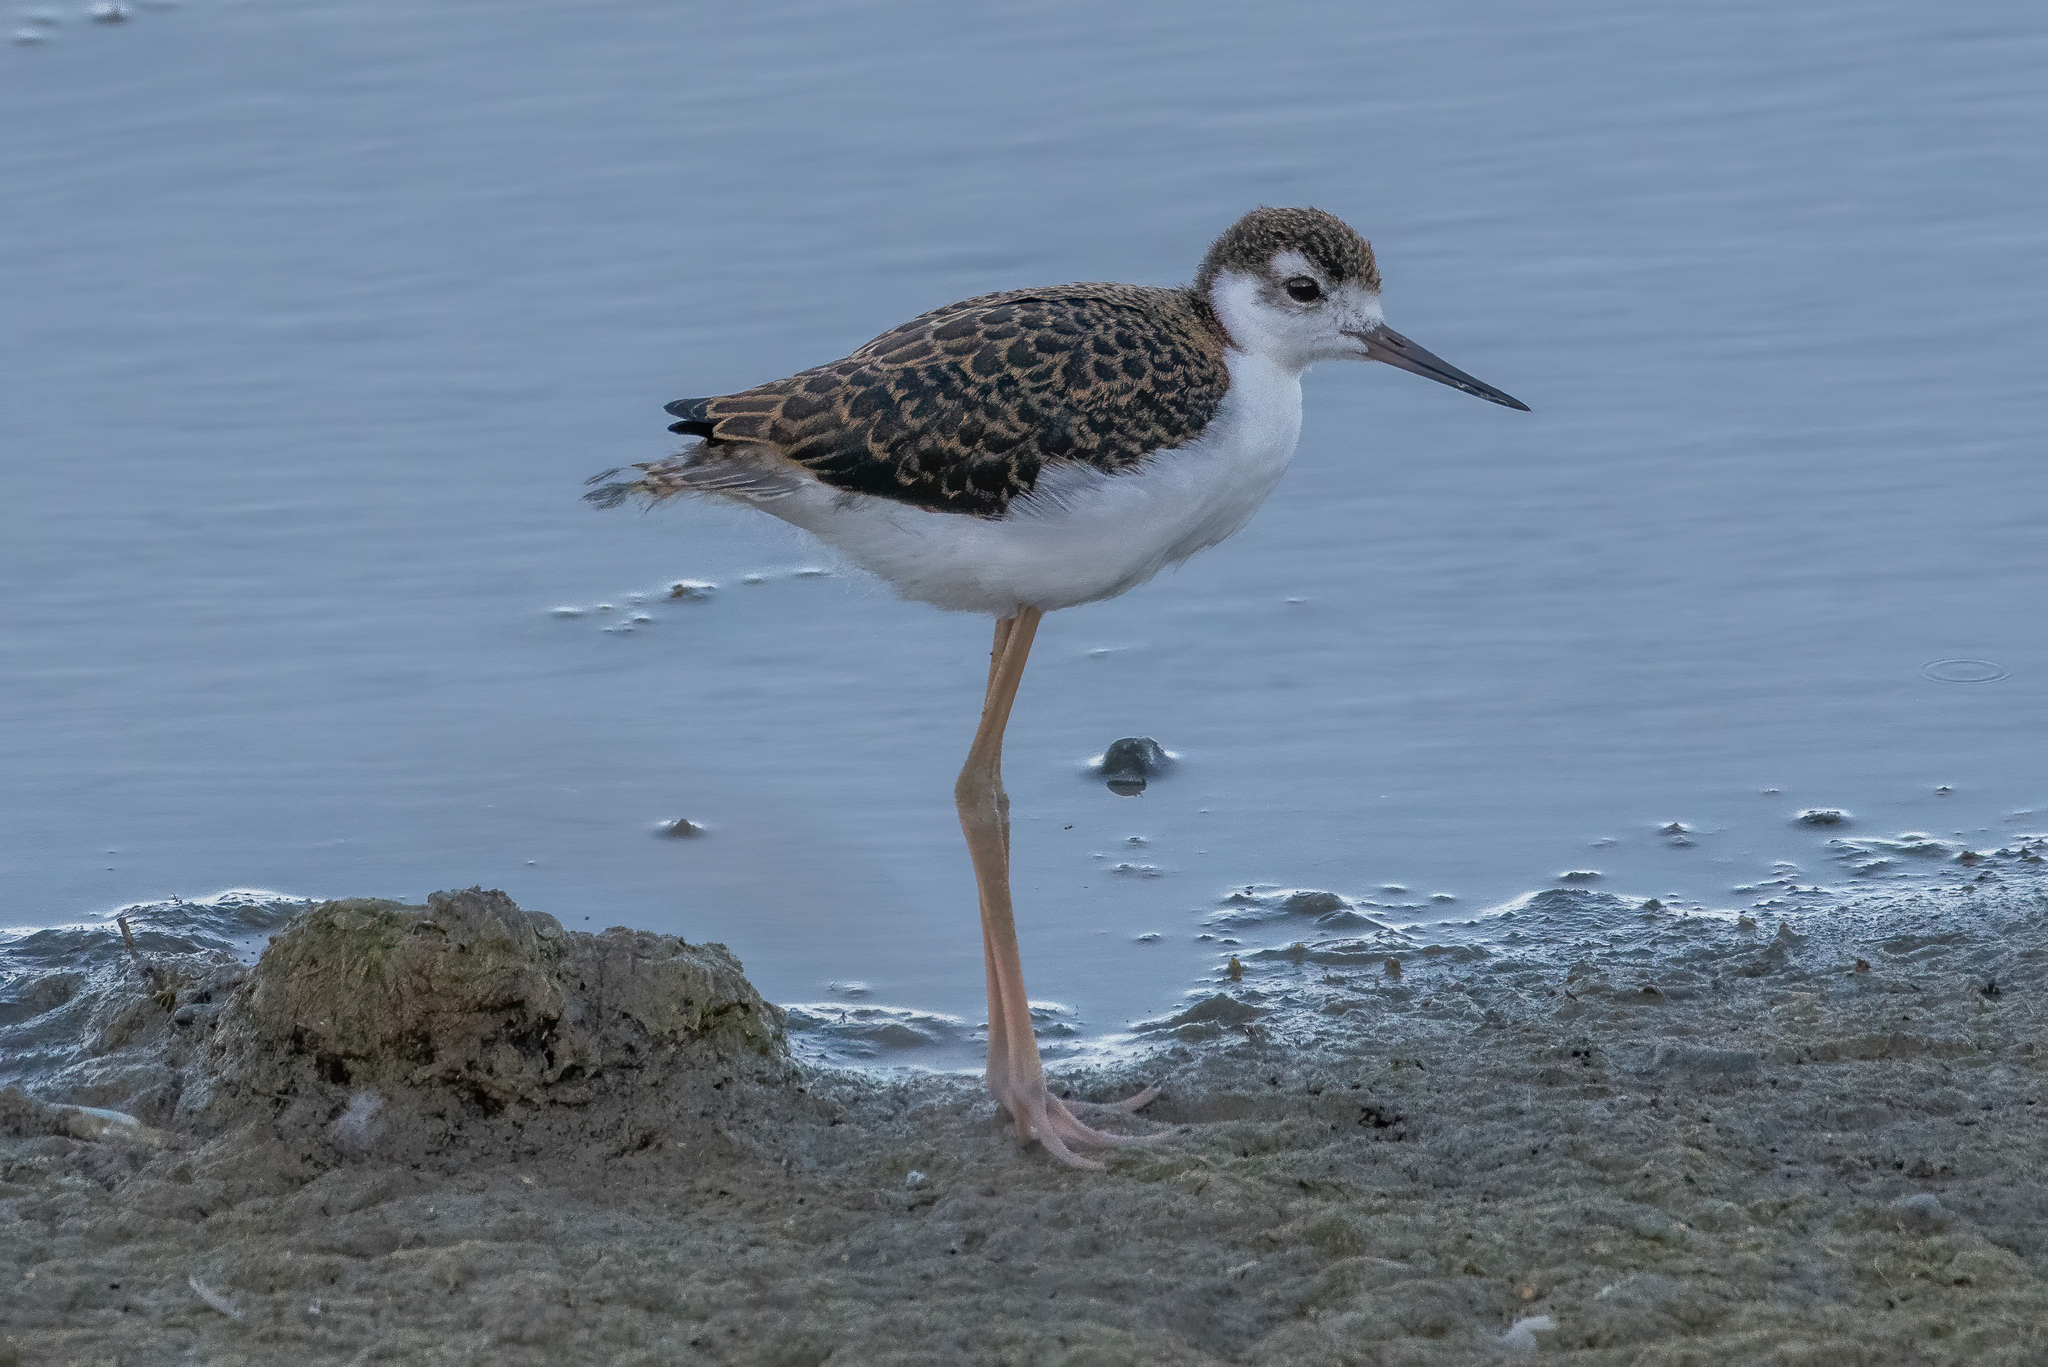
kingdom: Animalia
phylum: Chordata
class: Aves
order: Charadriiformes
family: Recurvirostridae
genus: Himantopus
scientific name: Himantopus mexicanus
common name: Black-necked stilt
